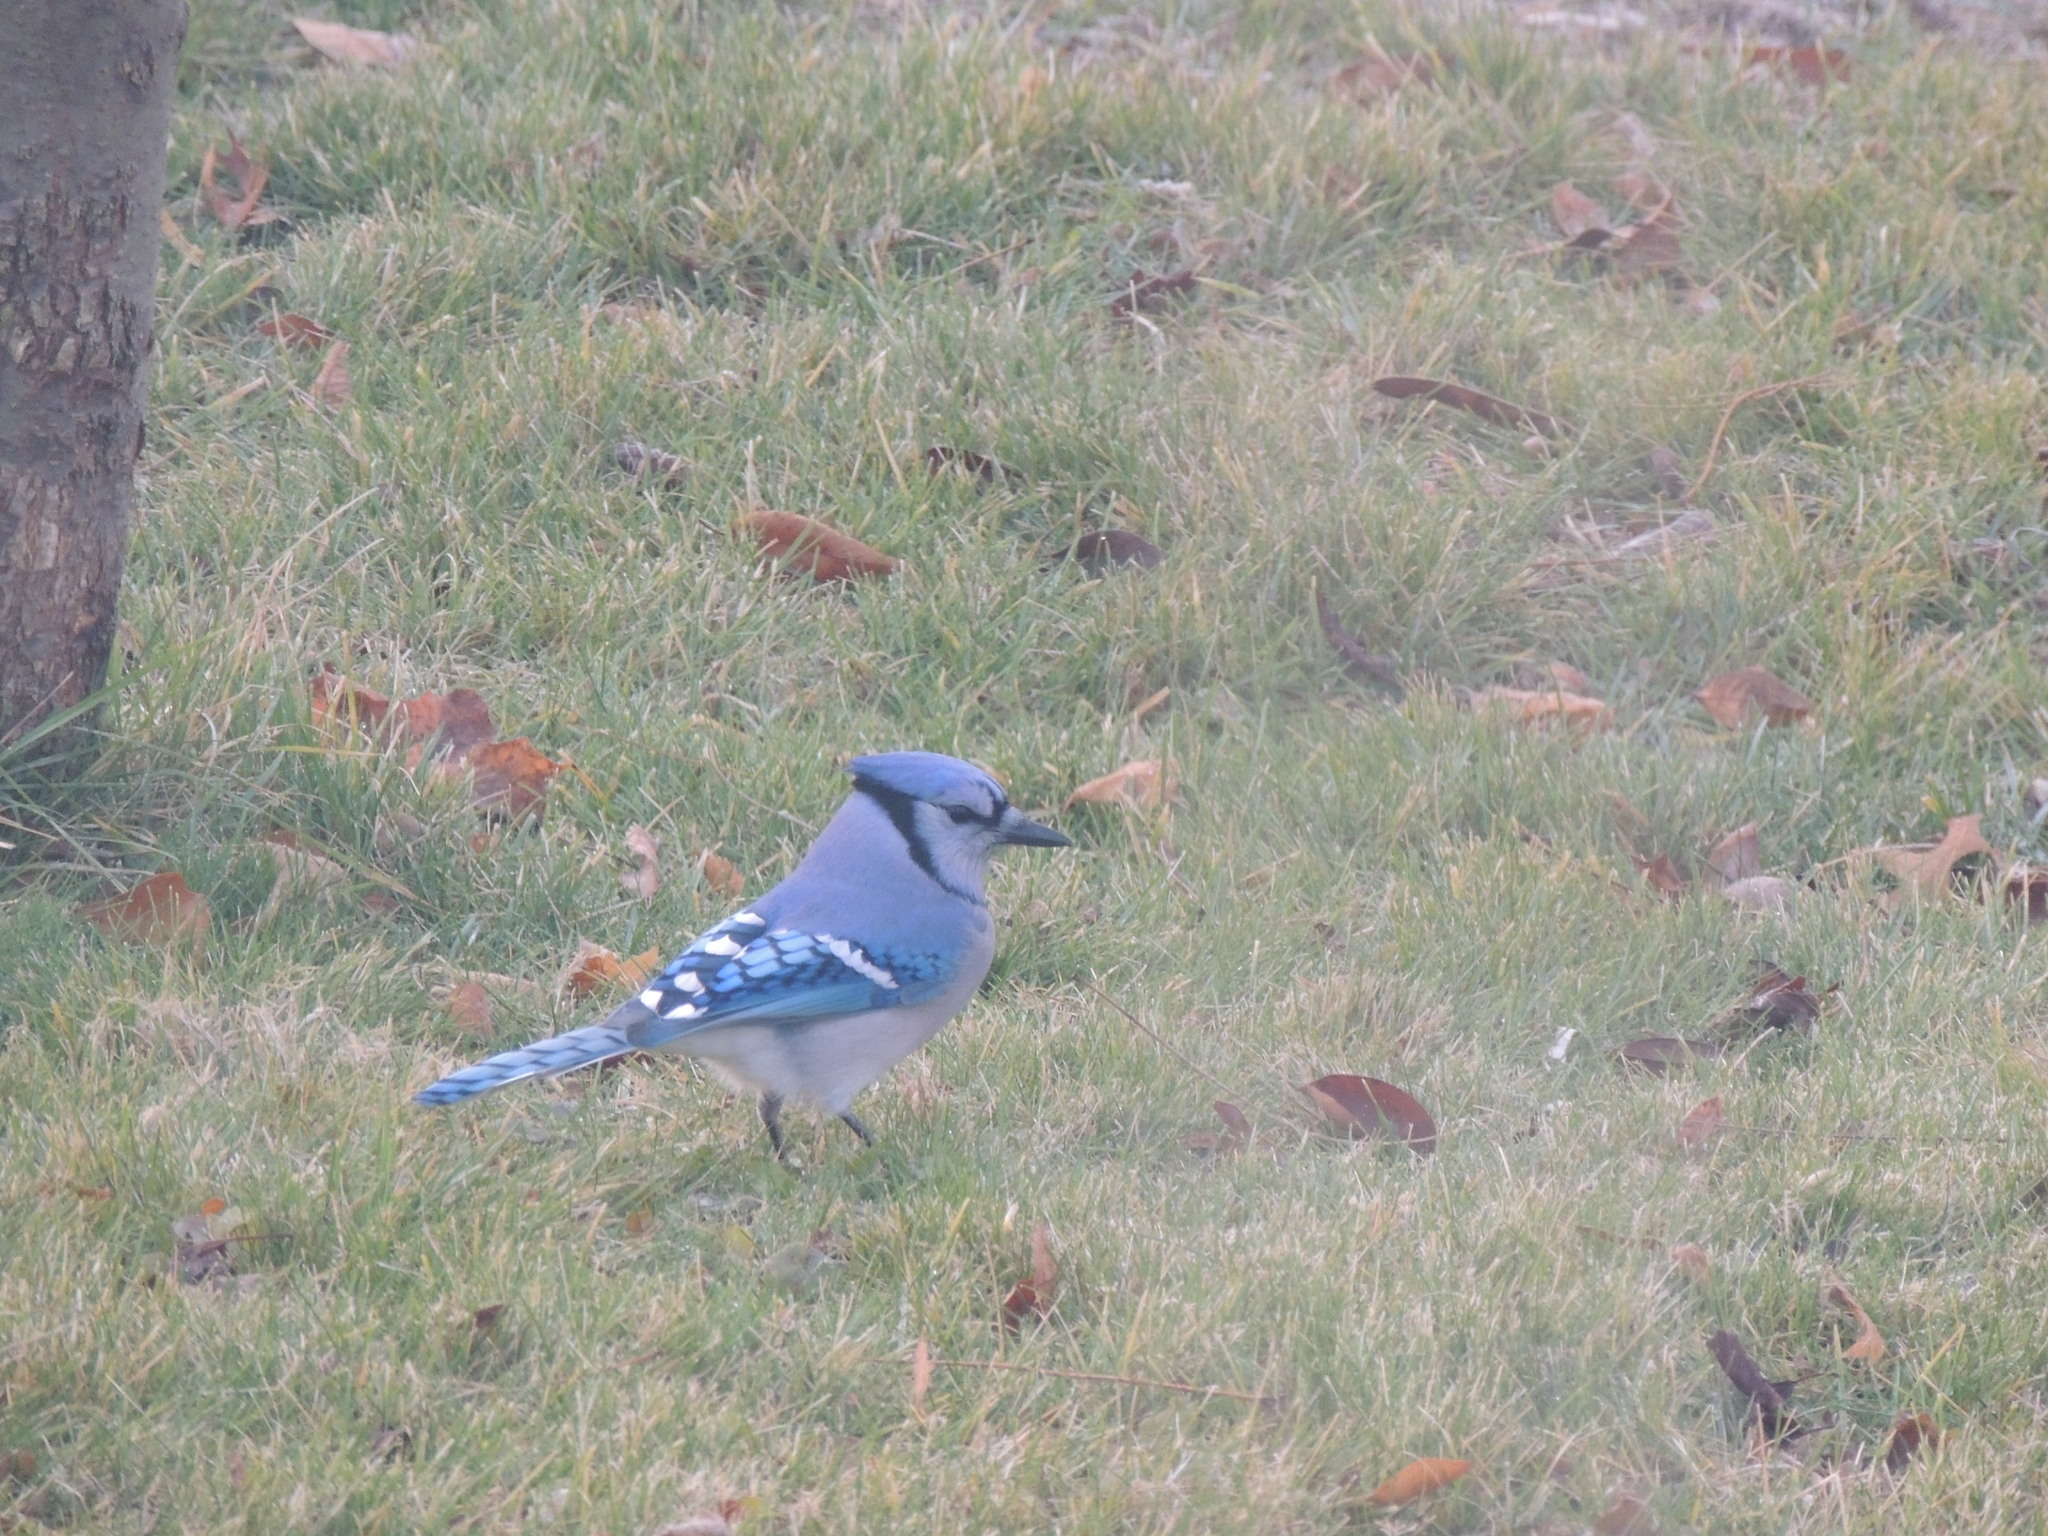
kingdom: Animalia
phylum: Chordata
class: Aves
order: Passeriformes
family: Corvidae
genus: Cyanocitta
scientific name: Cyanocitta cristata
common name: Blue jay
